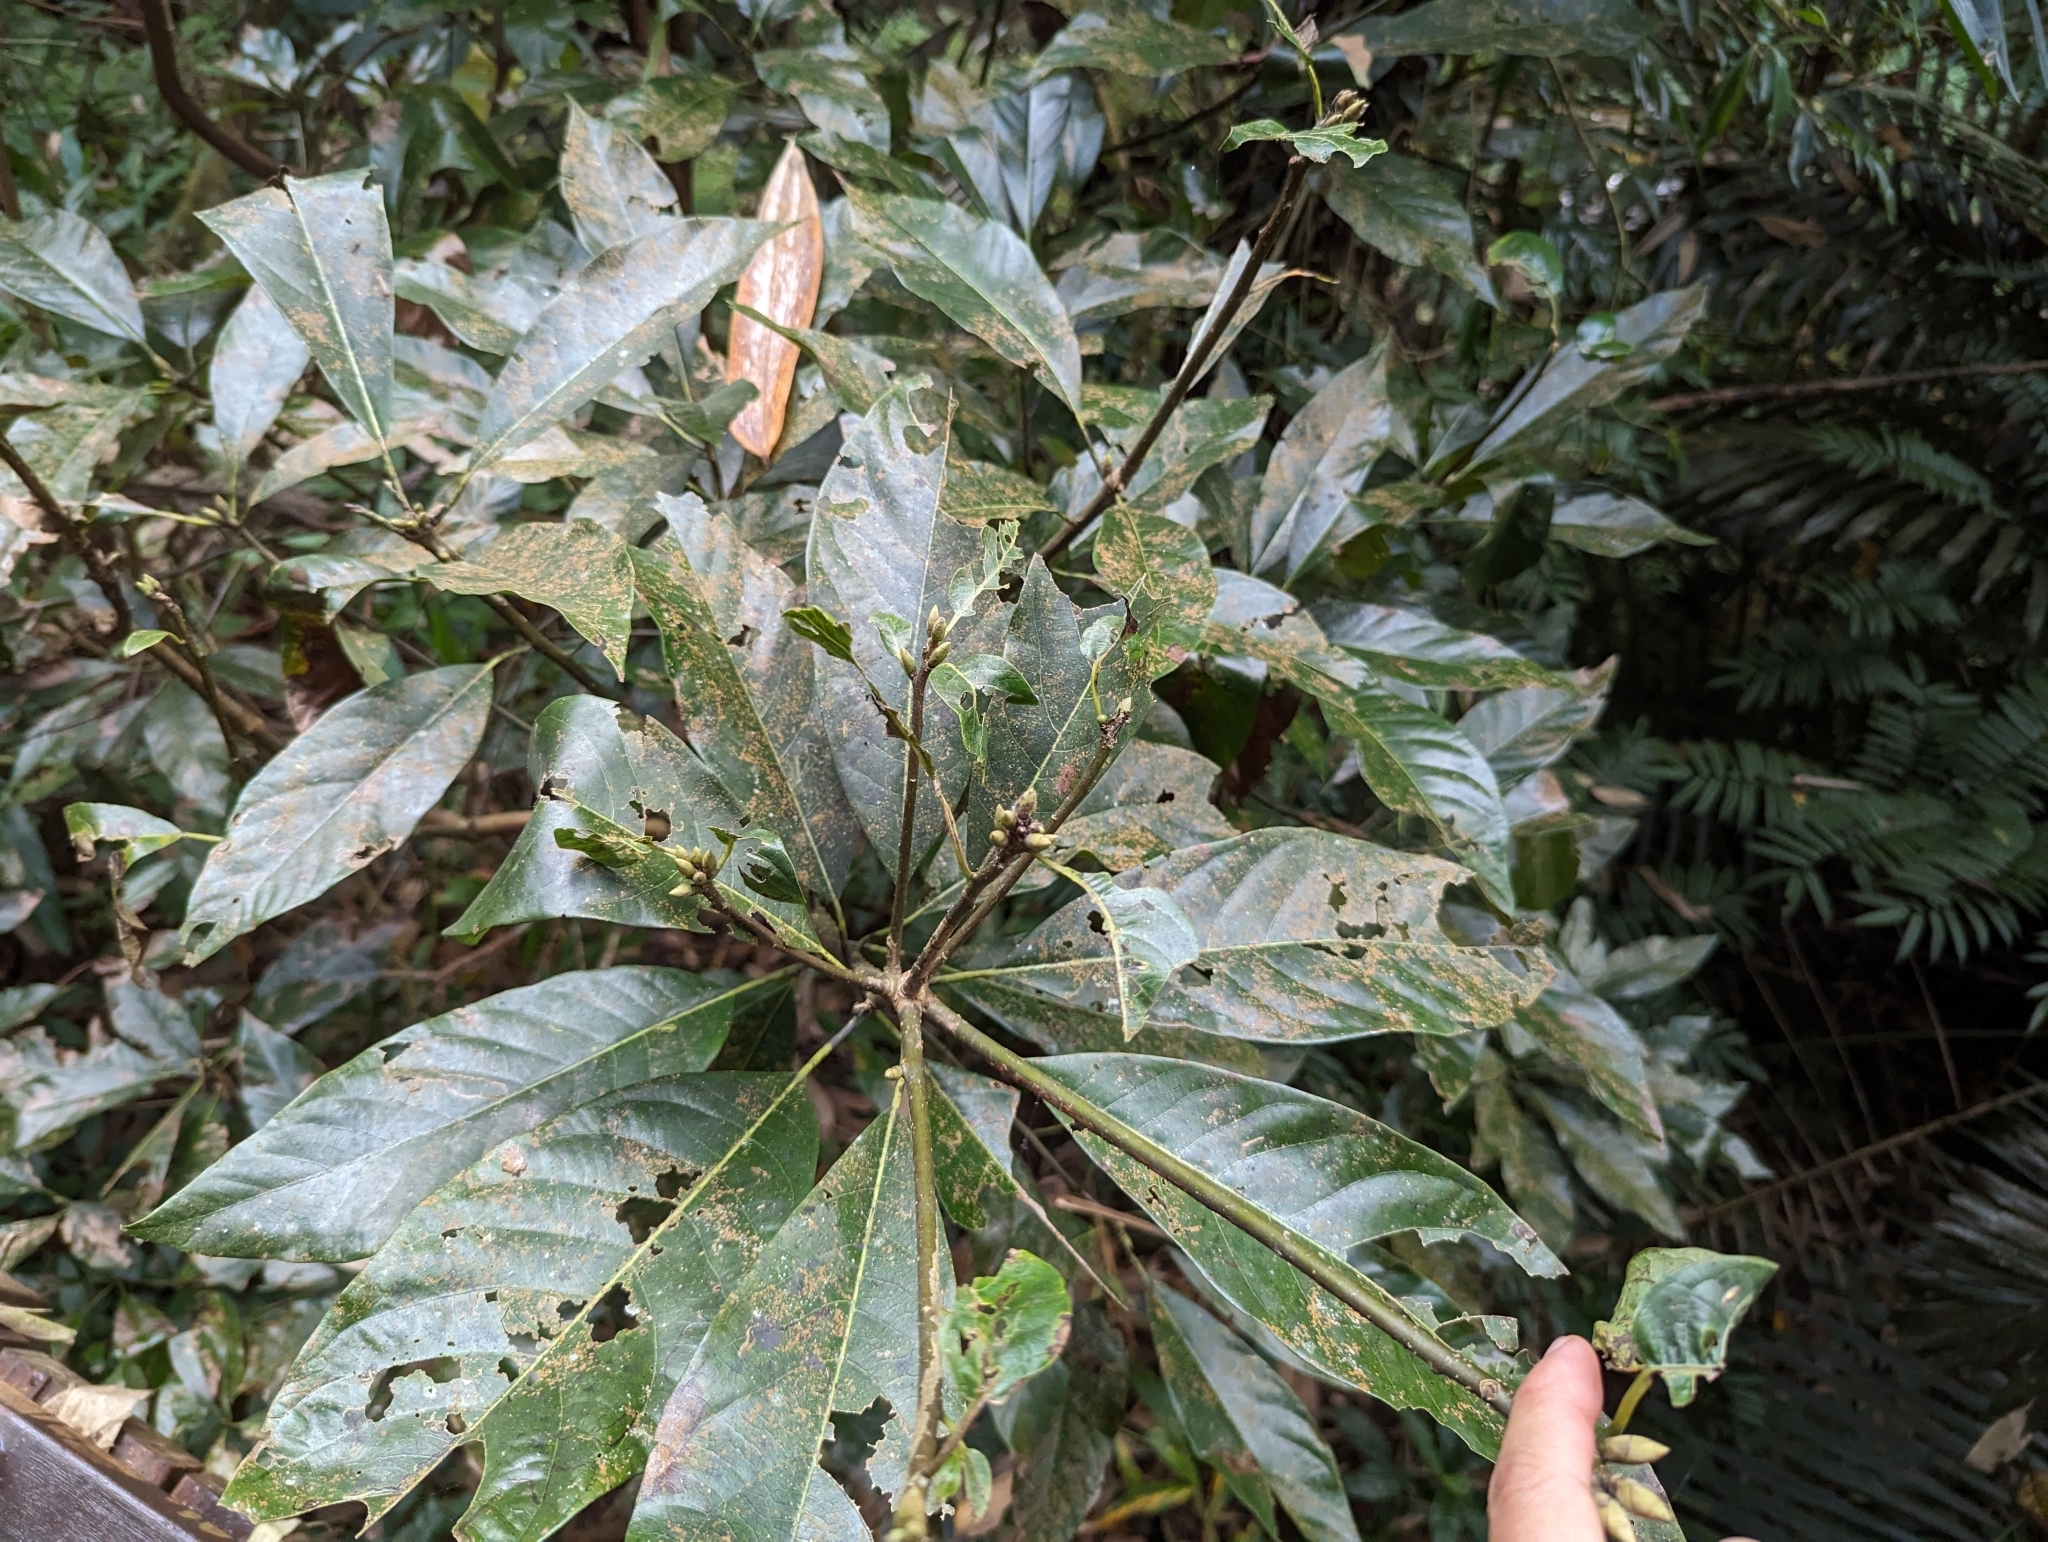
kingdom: Plantae
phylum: Tracheophyta
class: Magnoliopsida
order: Laurales
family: Lauraceae
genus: Lindera
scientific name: Lindera megaphylla
